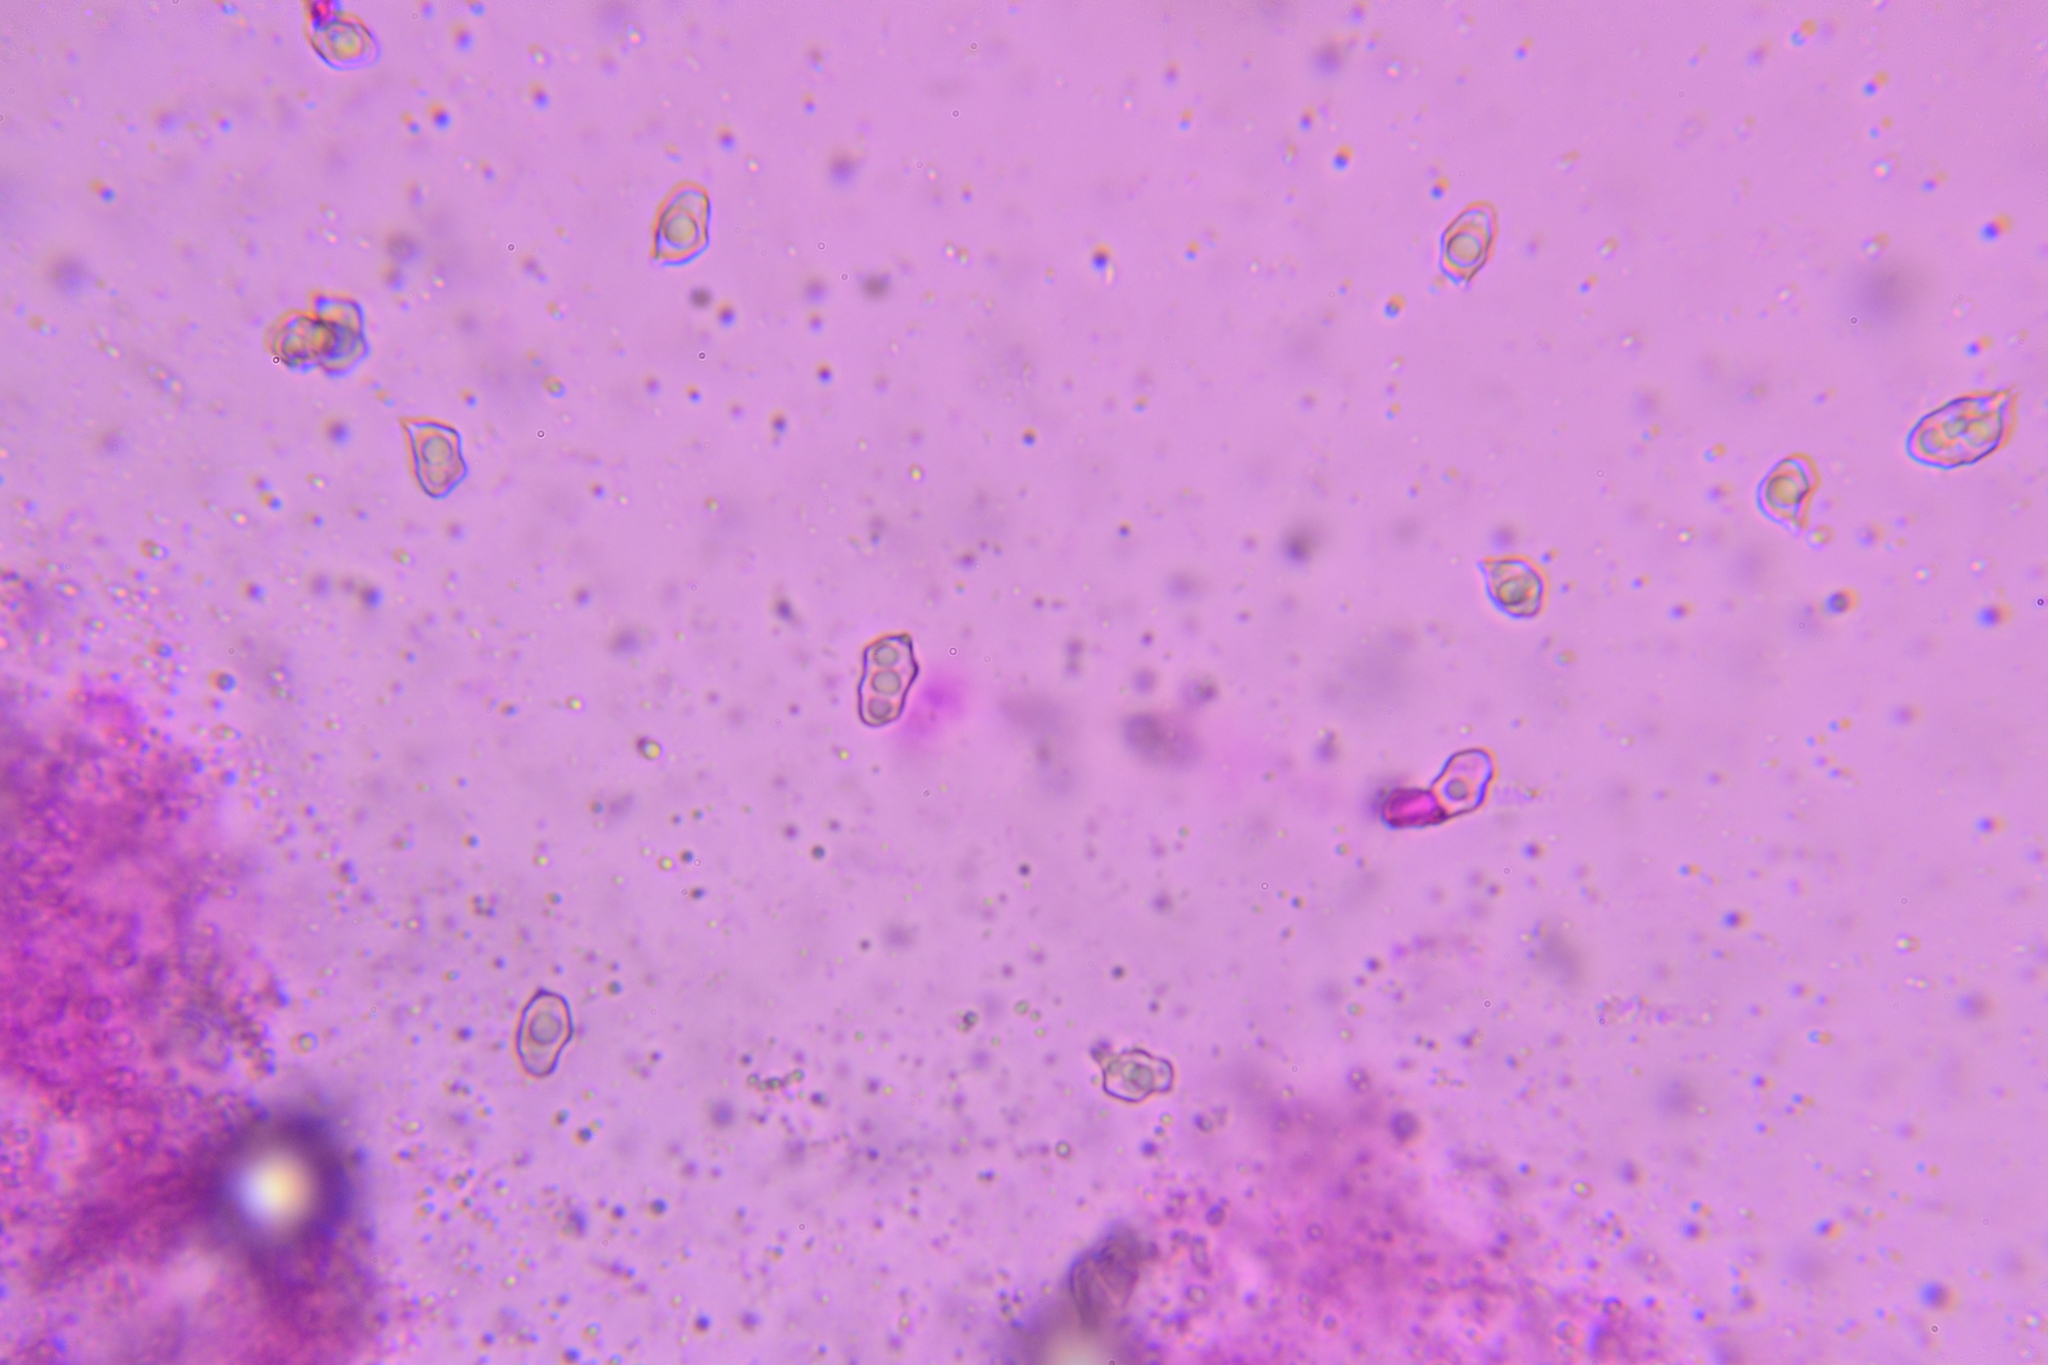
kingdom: Fungi
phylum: Basidiomycota
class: Agaricomycetes
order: Agaricales
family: Entolomataceae
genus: Entoloma
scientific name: Entoloma subserrulatum
